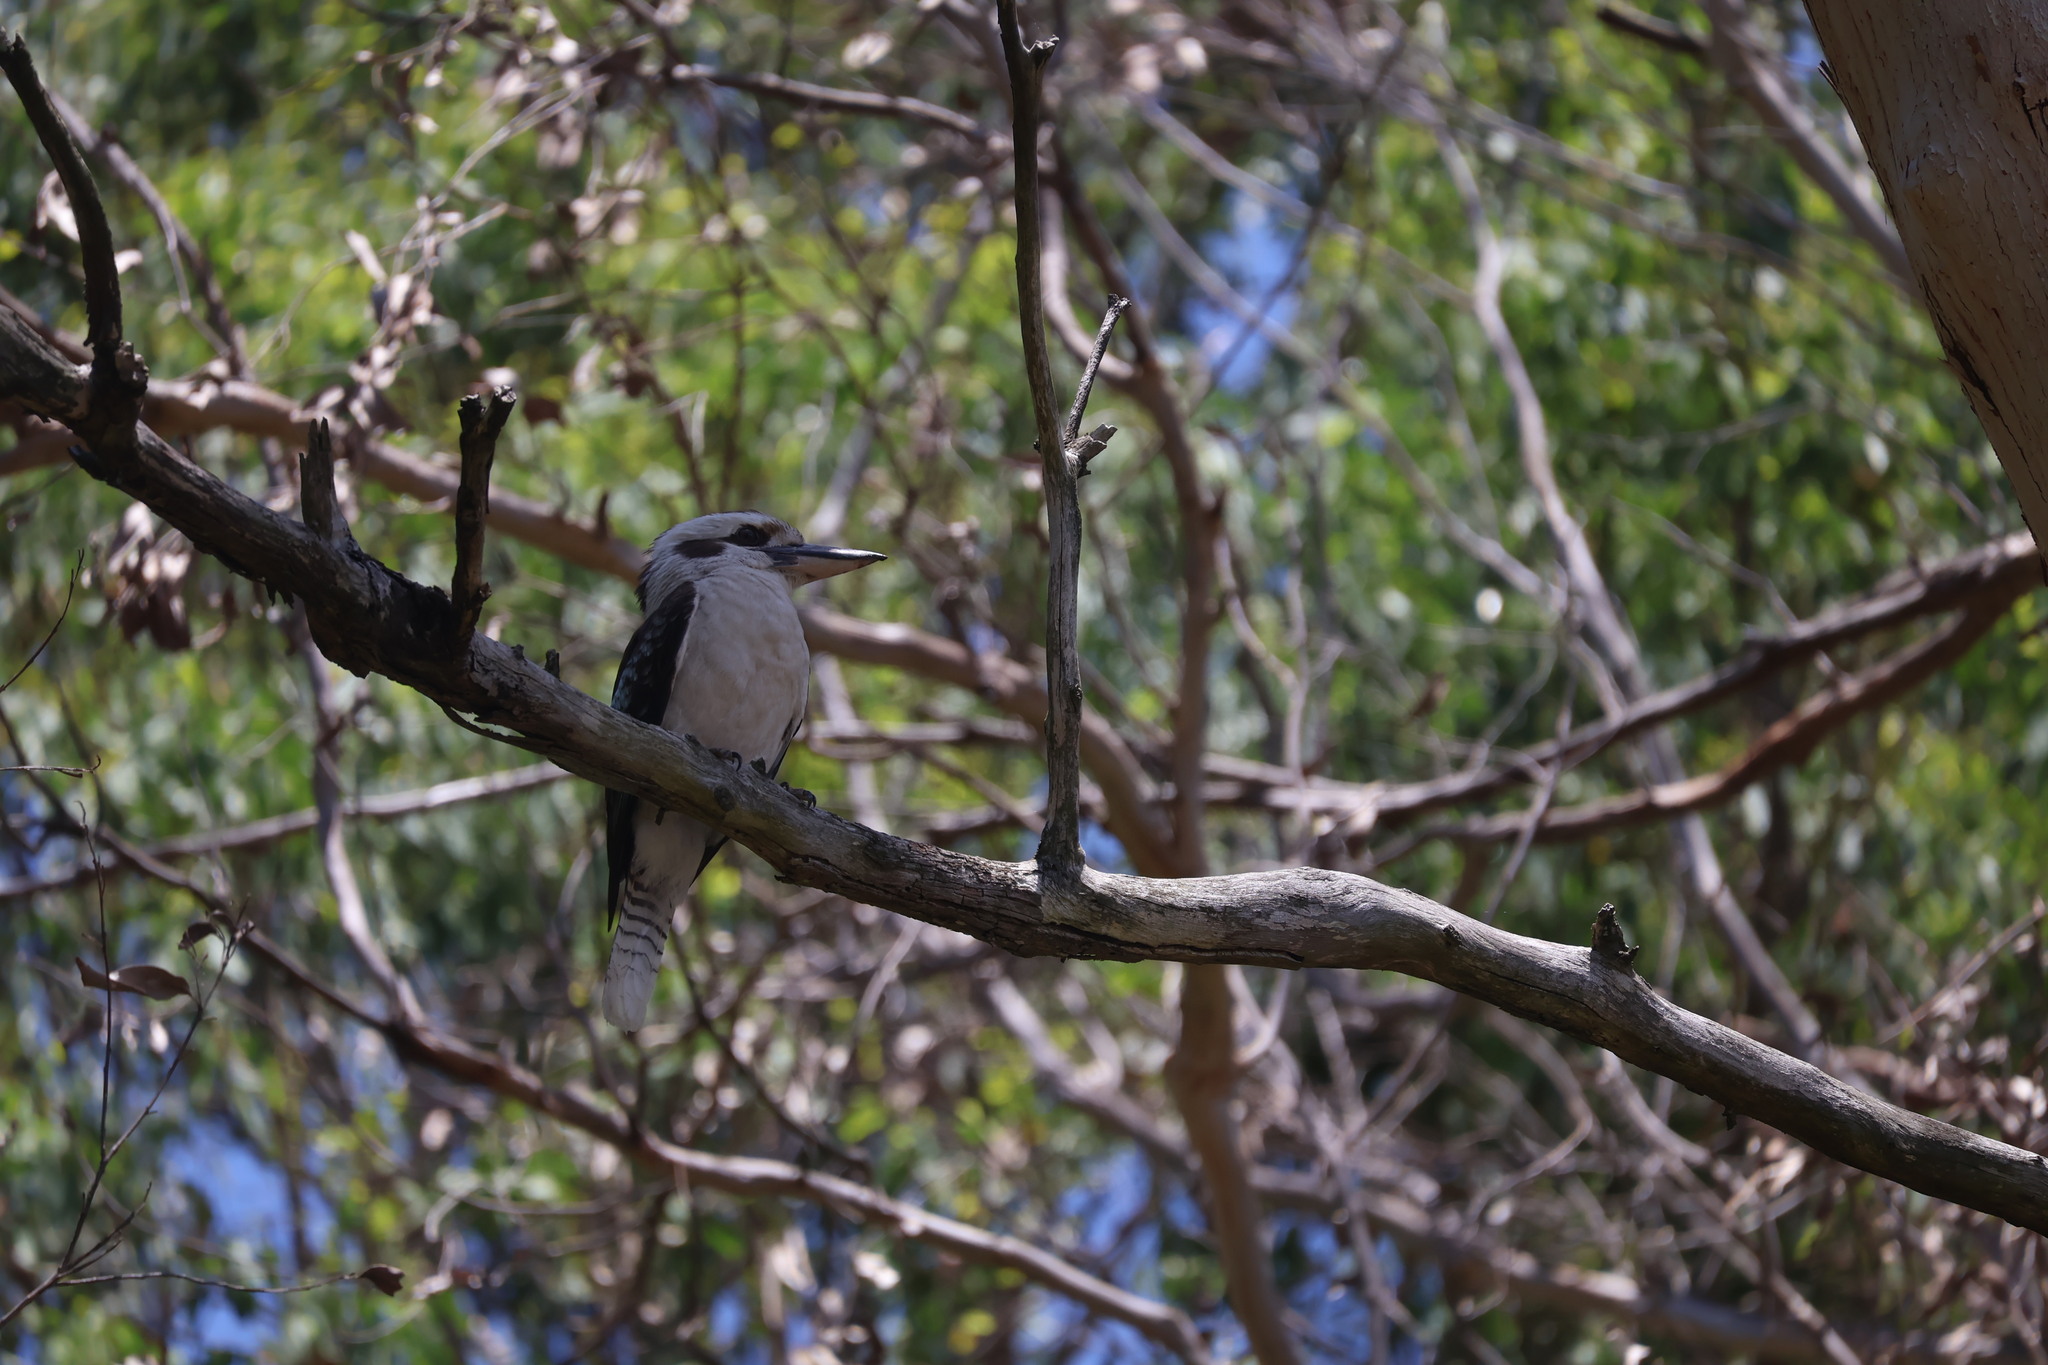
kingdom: Animalia
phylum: Chordata
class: Aves
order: Coraciiformes
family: Alcedinidae
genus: Dacelo
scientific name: Dacelo novaeguineae
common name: Laughing kookaburra
